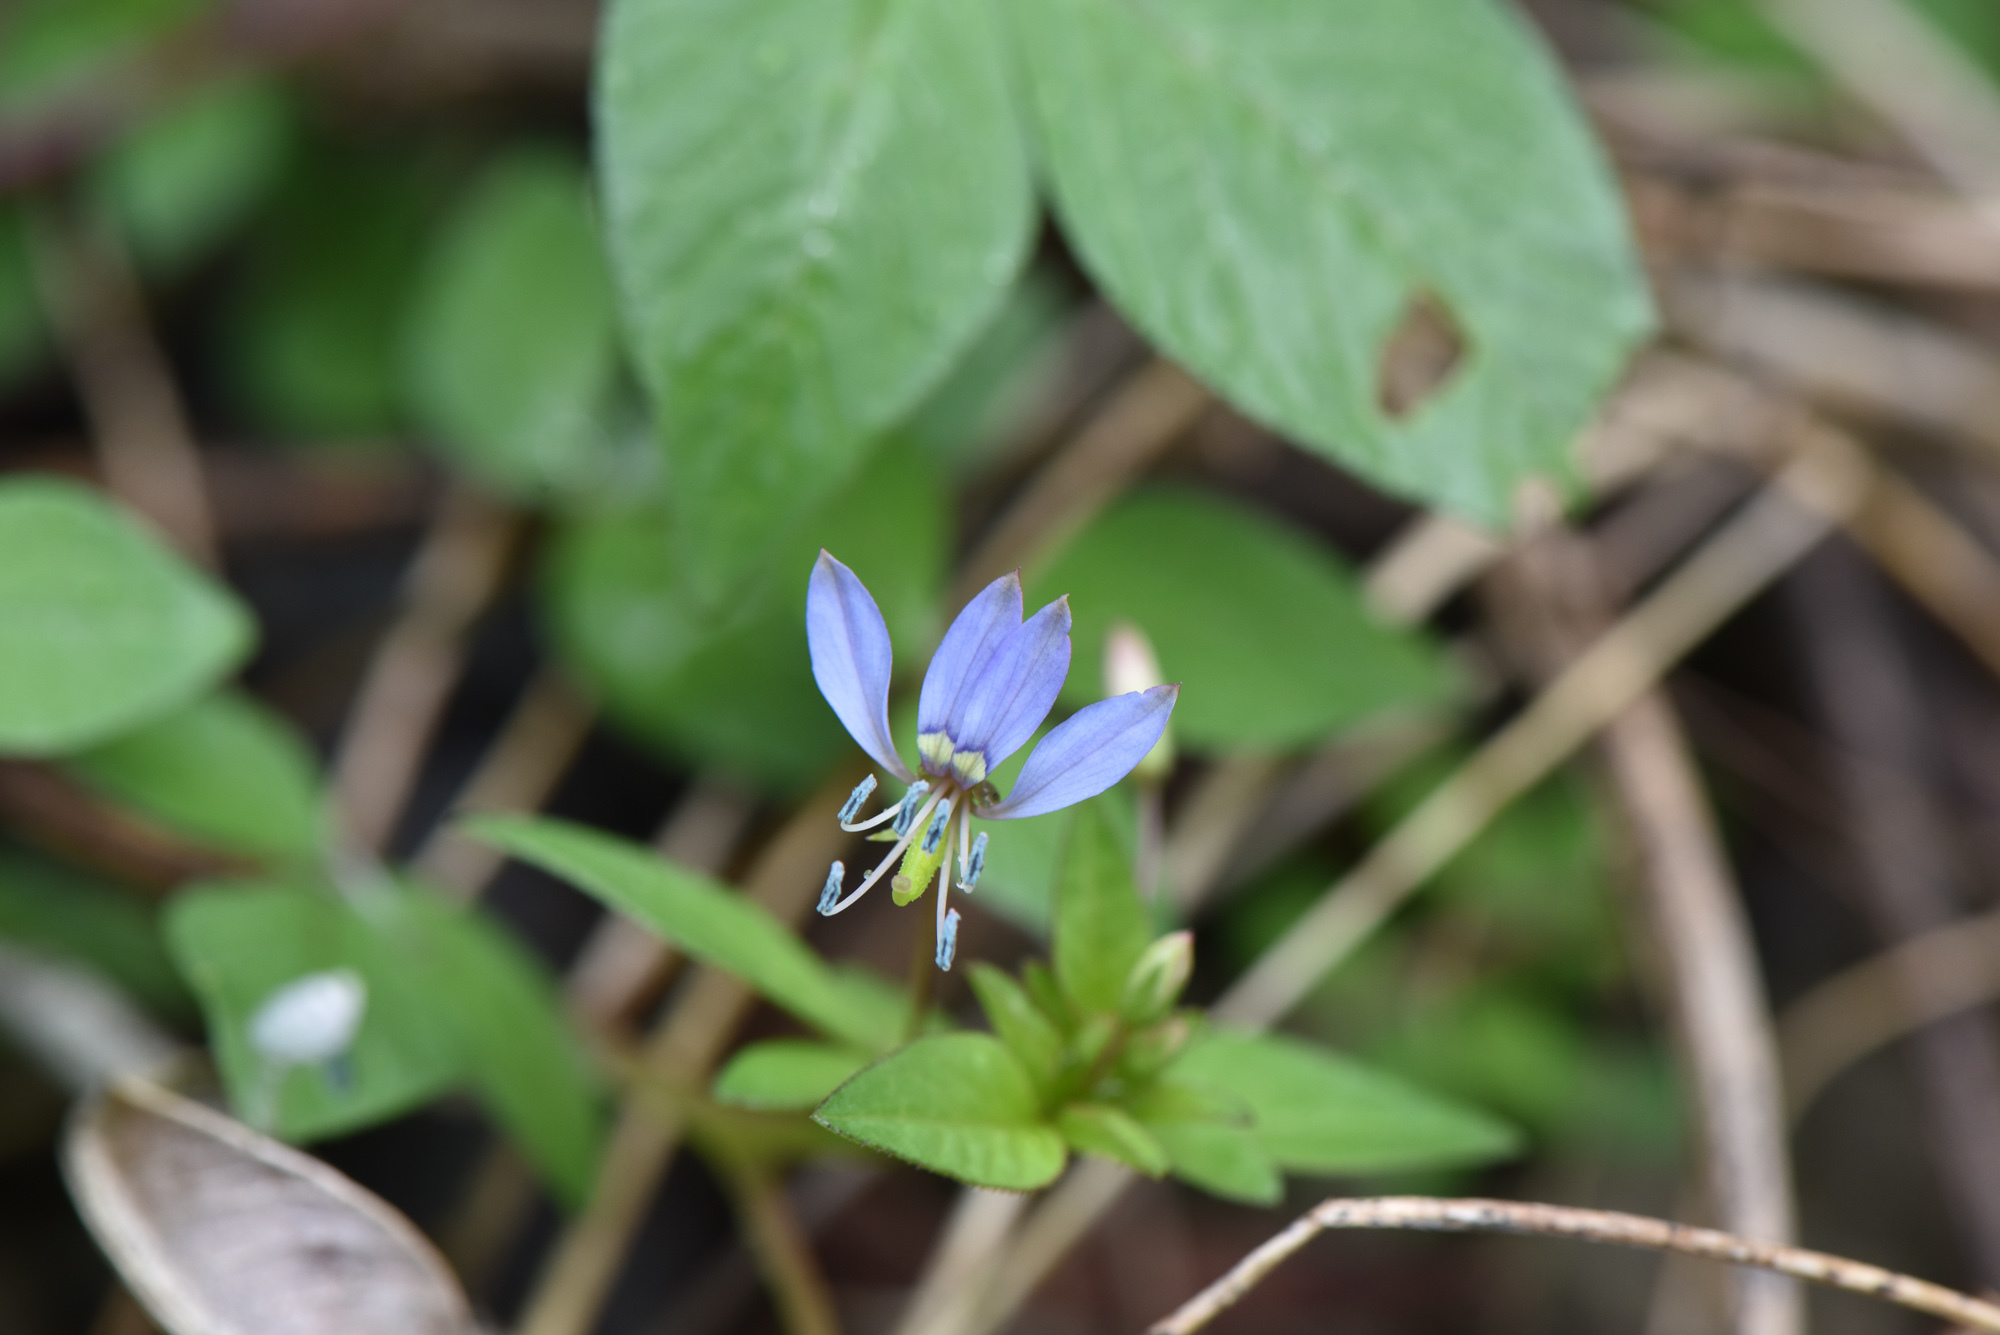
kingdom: Plantae
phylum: Tracheophyta
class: Magnoliopsida
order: Brassicales
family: Cleomaceae
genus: Sieruela
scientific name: Sieruela rutidosperma
